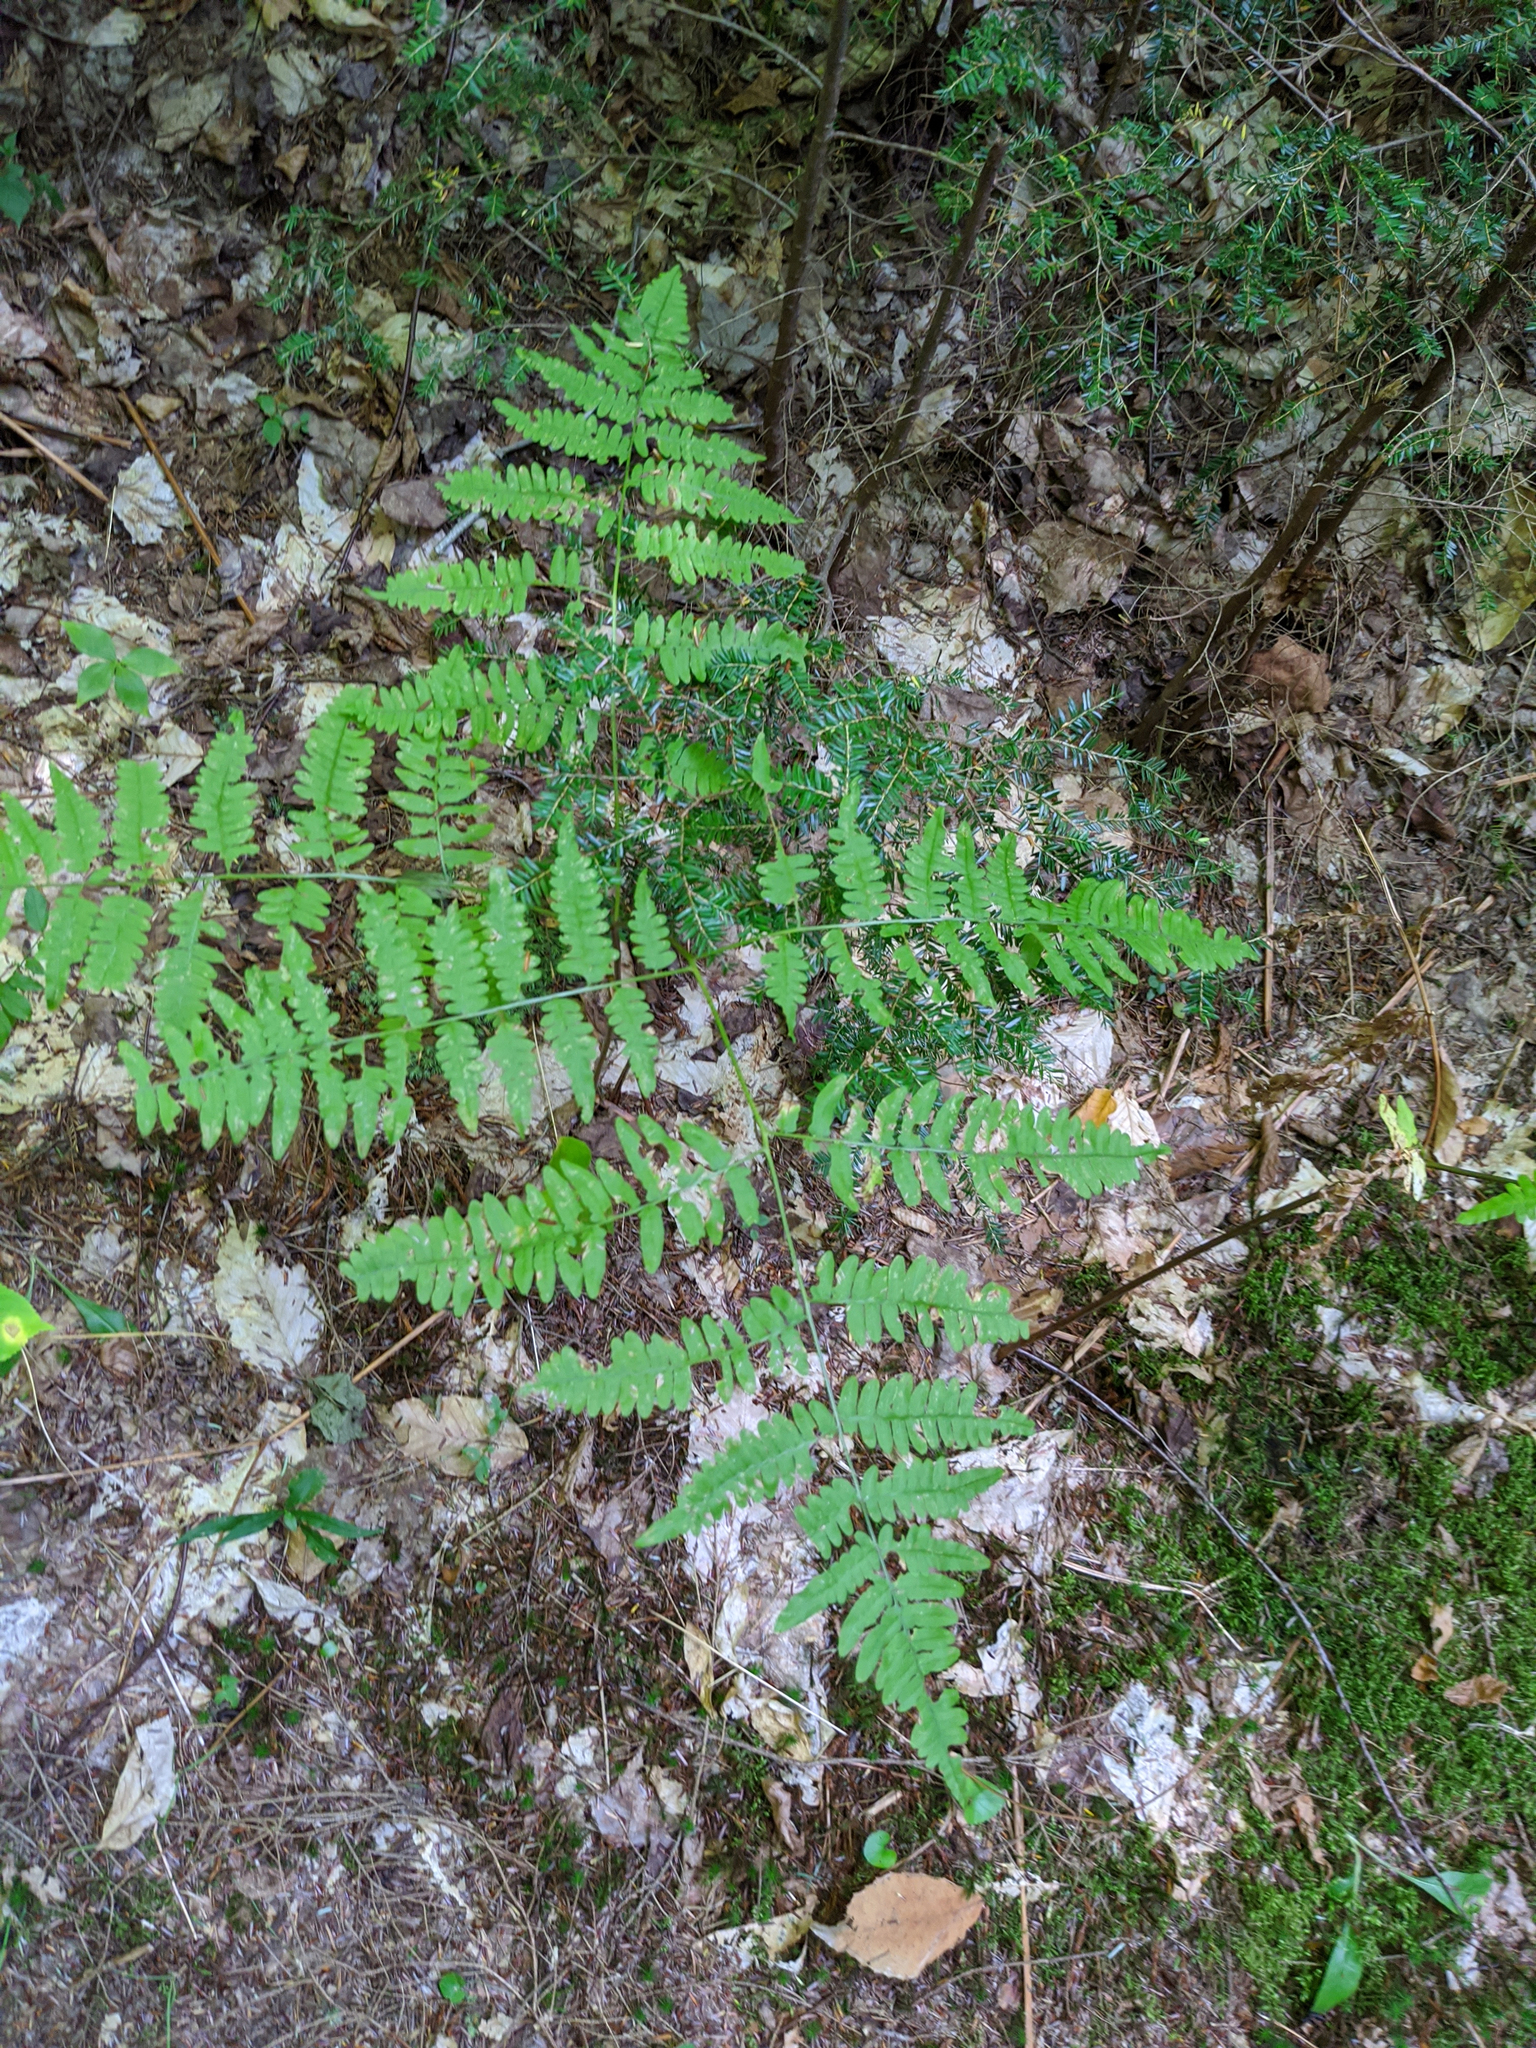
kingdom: Plantae
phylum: Tracheophyta
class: Polypodiopsida
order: Polypodiales
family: Dennstaedtiaceae
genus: Pteridium
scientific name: Pteridium aquilinum
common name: Bracken
